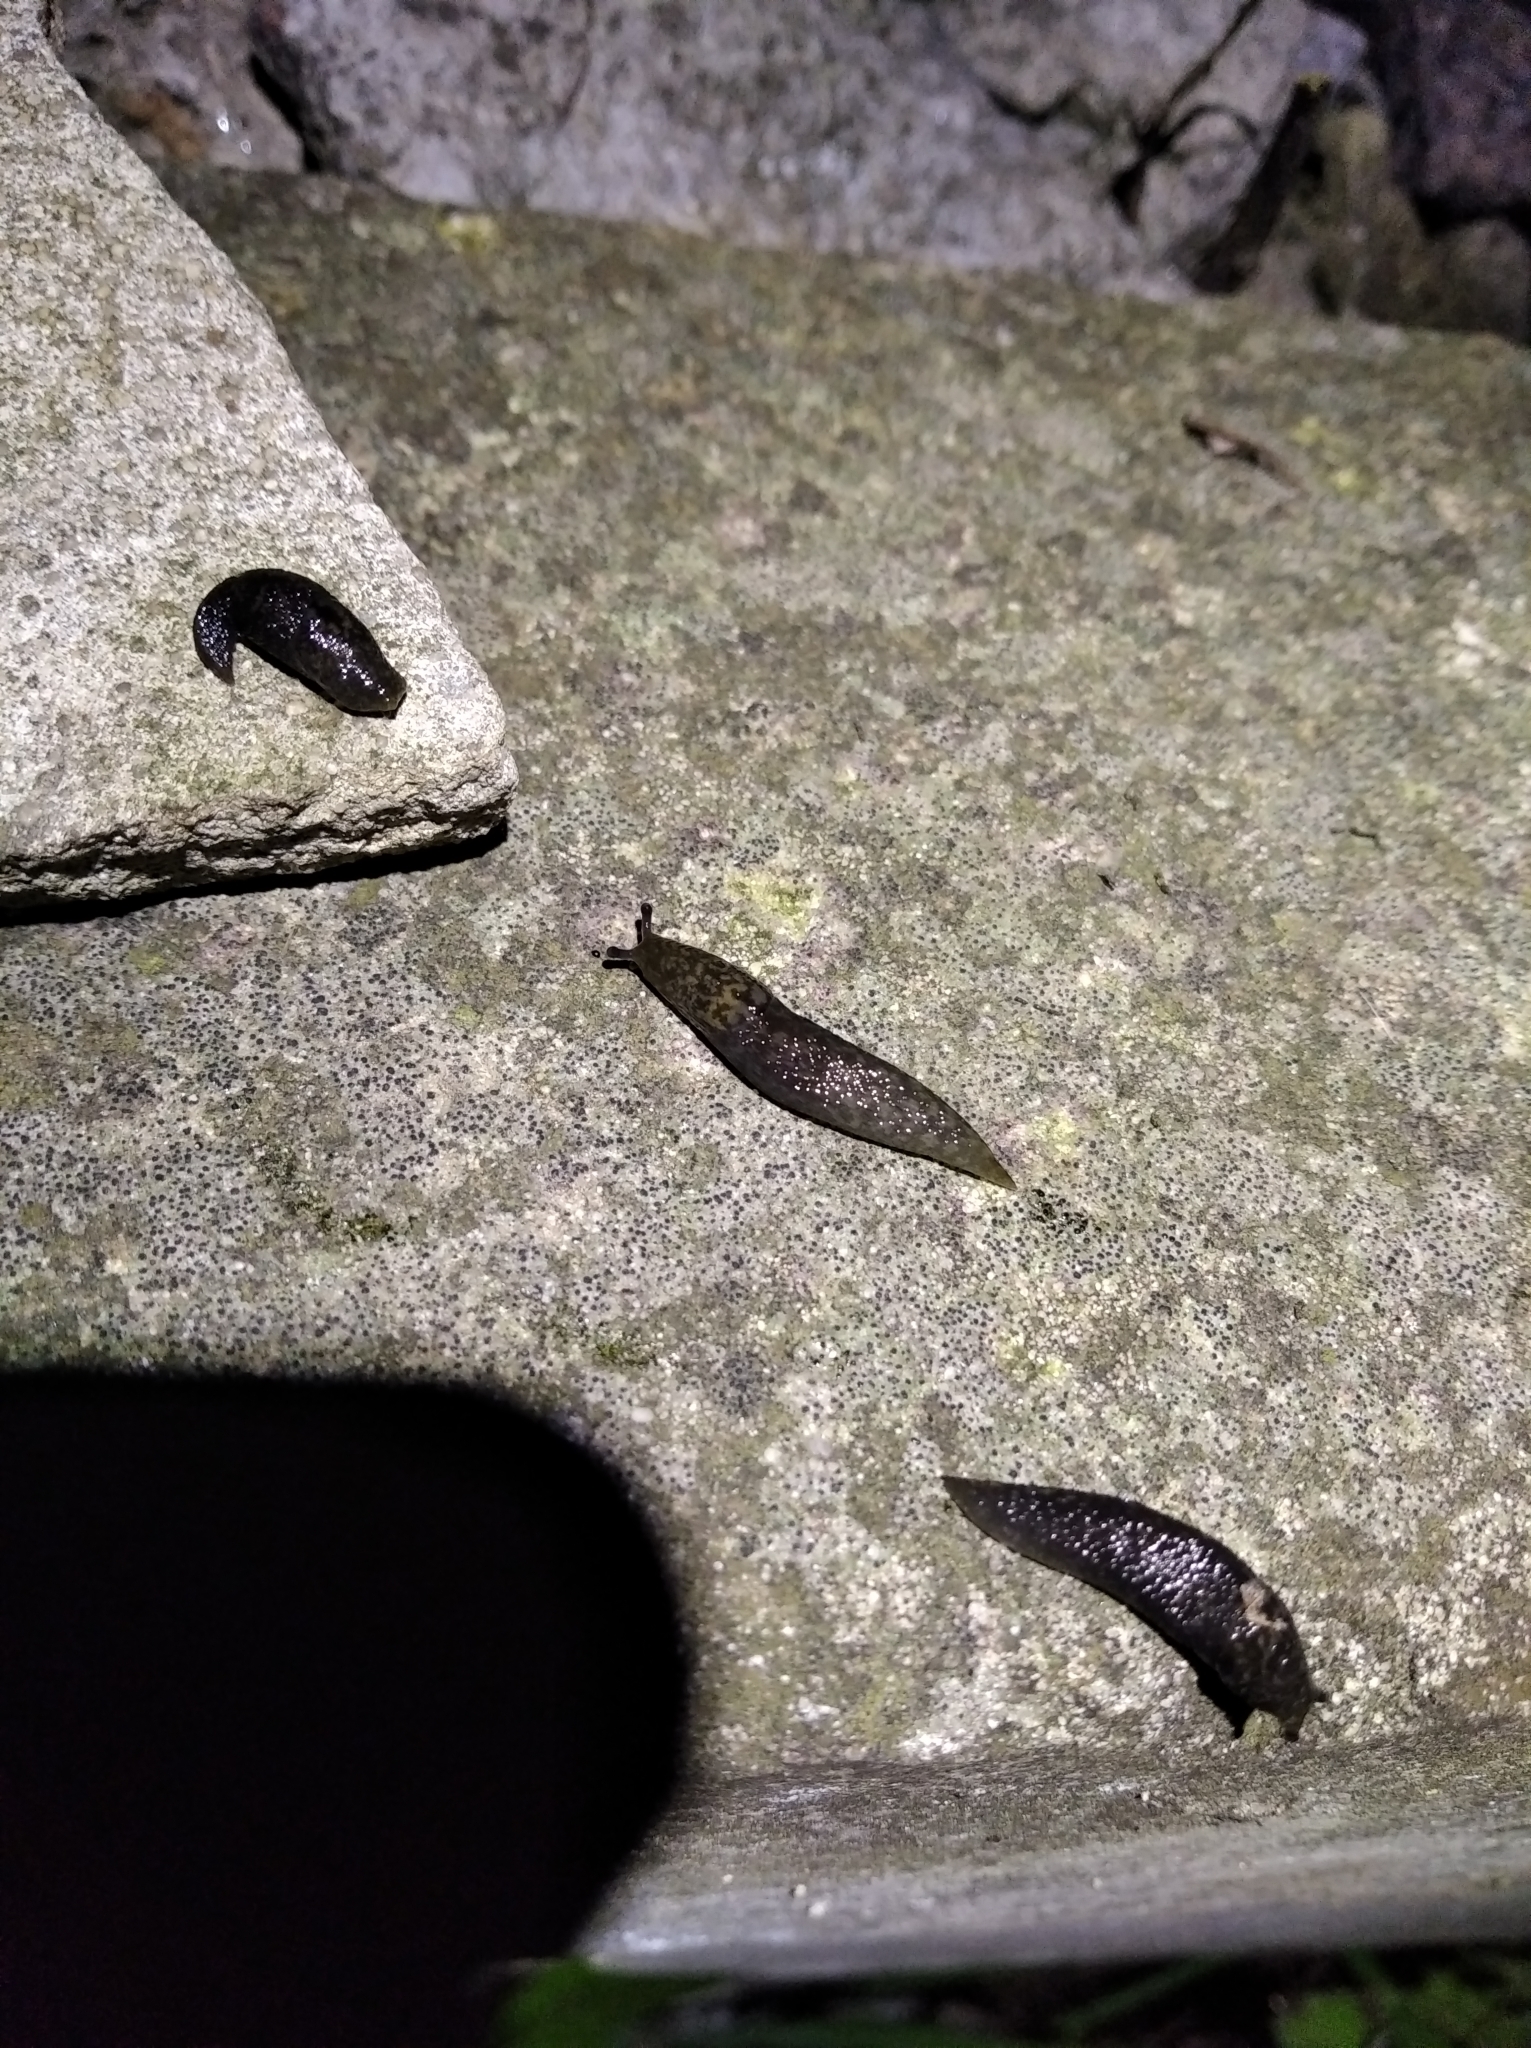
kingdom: Animalia
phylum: Mollusca
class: Gastropoda
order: Stylommatophora
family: Limacidae
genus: Limacus
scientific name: Limacus
